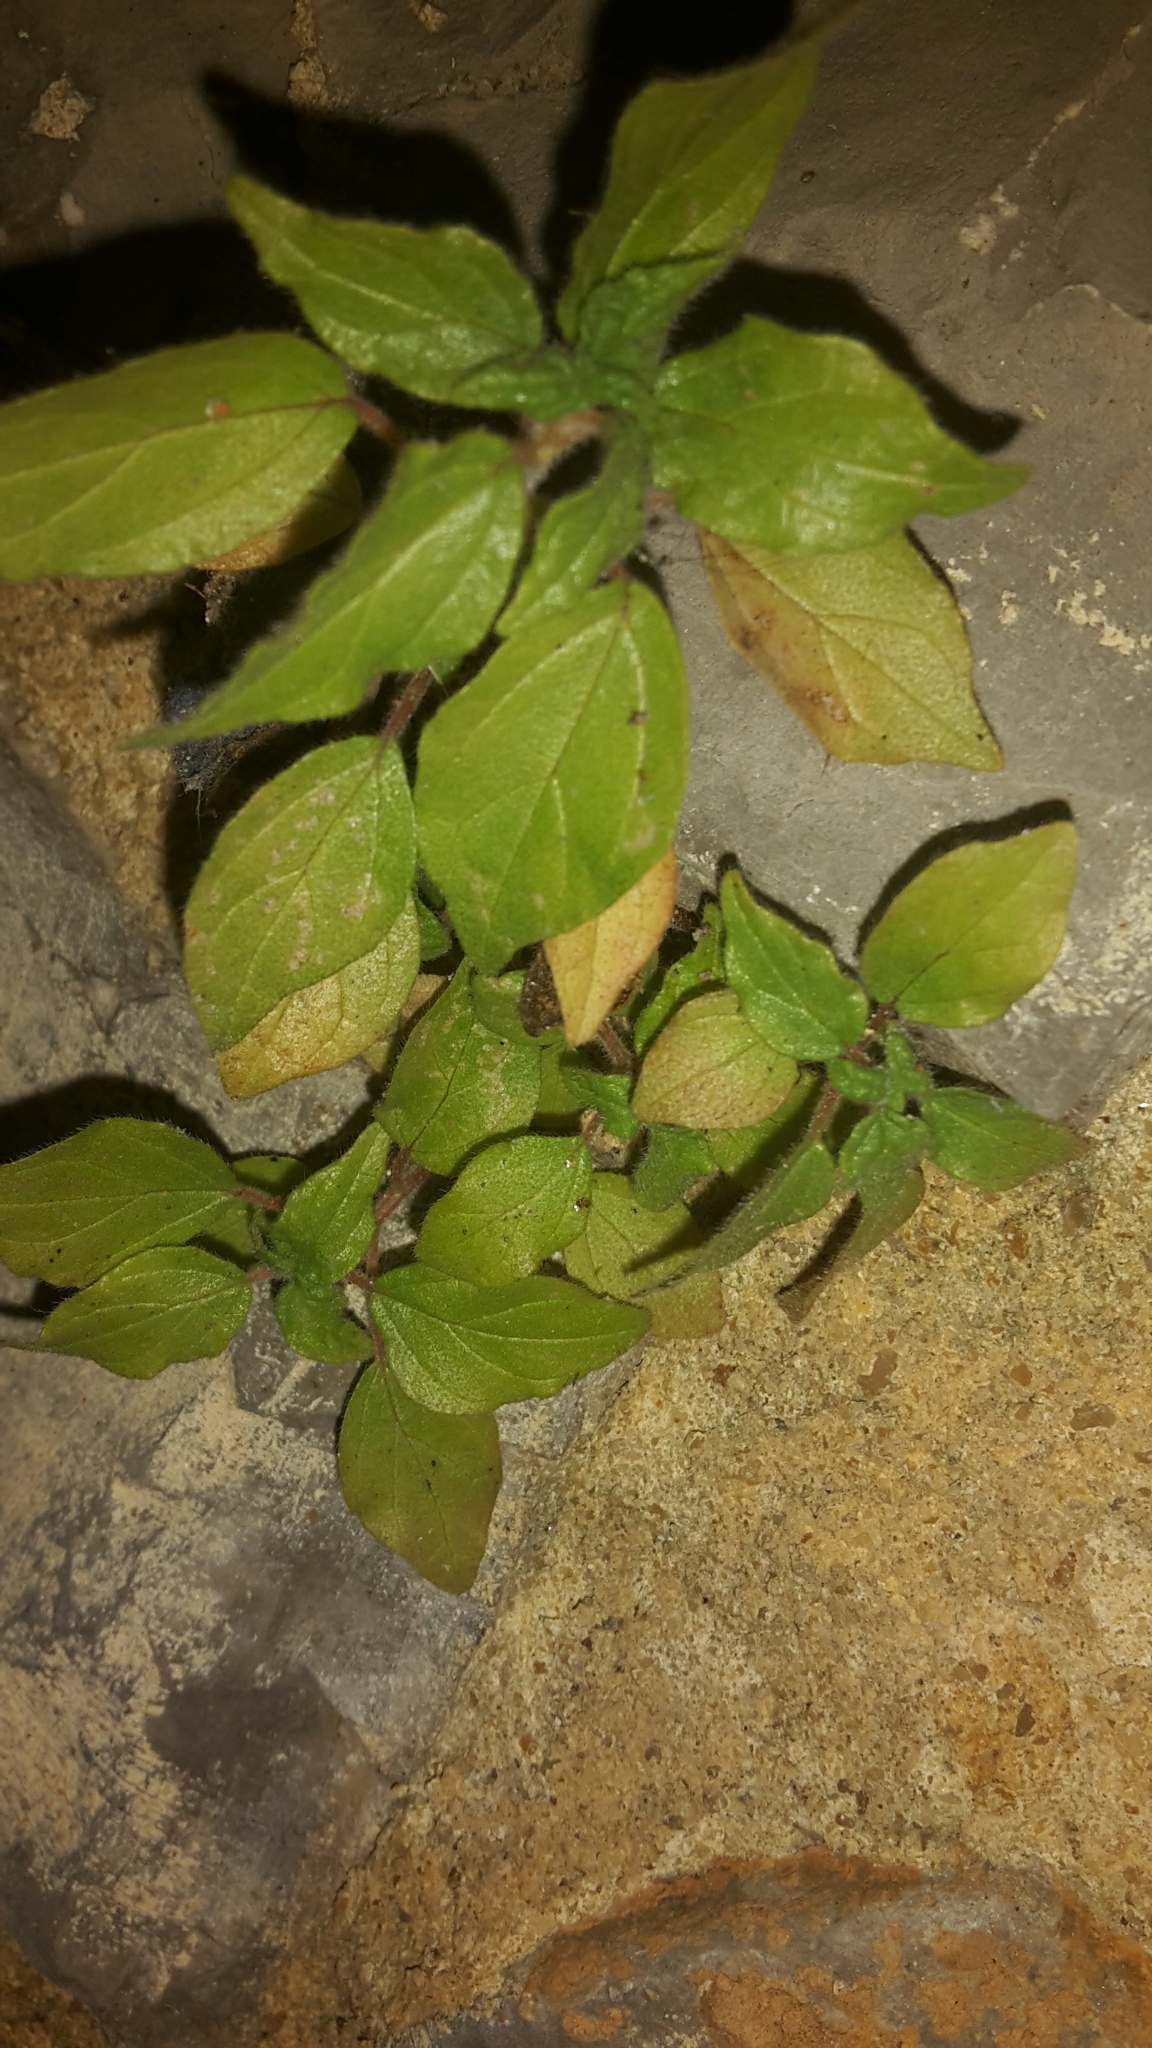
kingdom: Plantae
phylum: Tracheophyta
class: Magnoliopsida
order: Rosales
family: Urticaceae
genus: Parietaria
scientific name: Parietaria judaica
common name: Pellitory-of-the-wall
